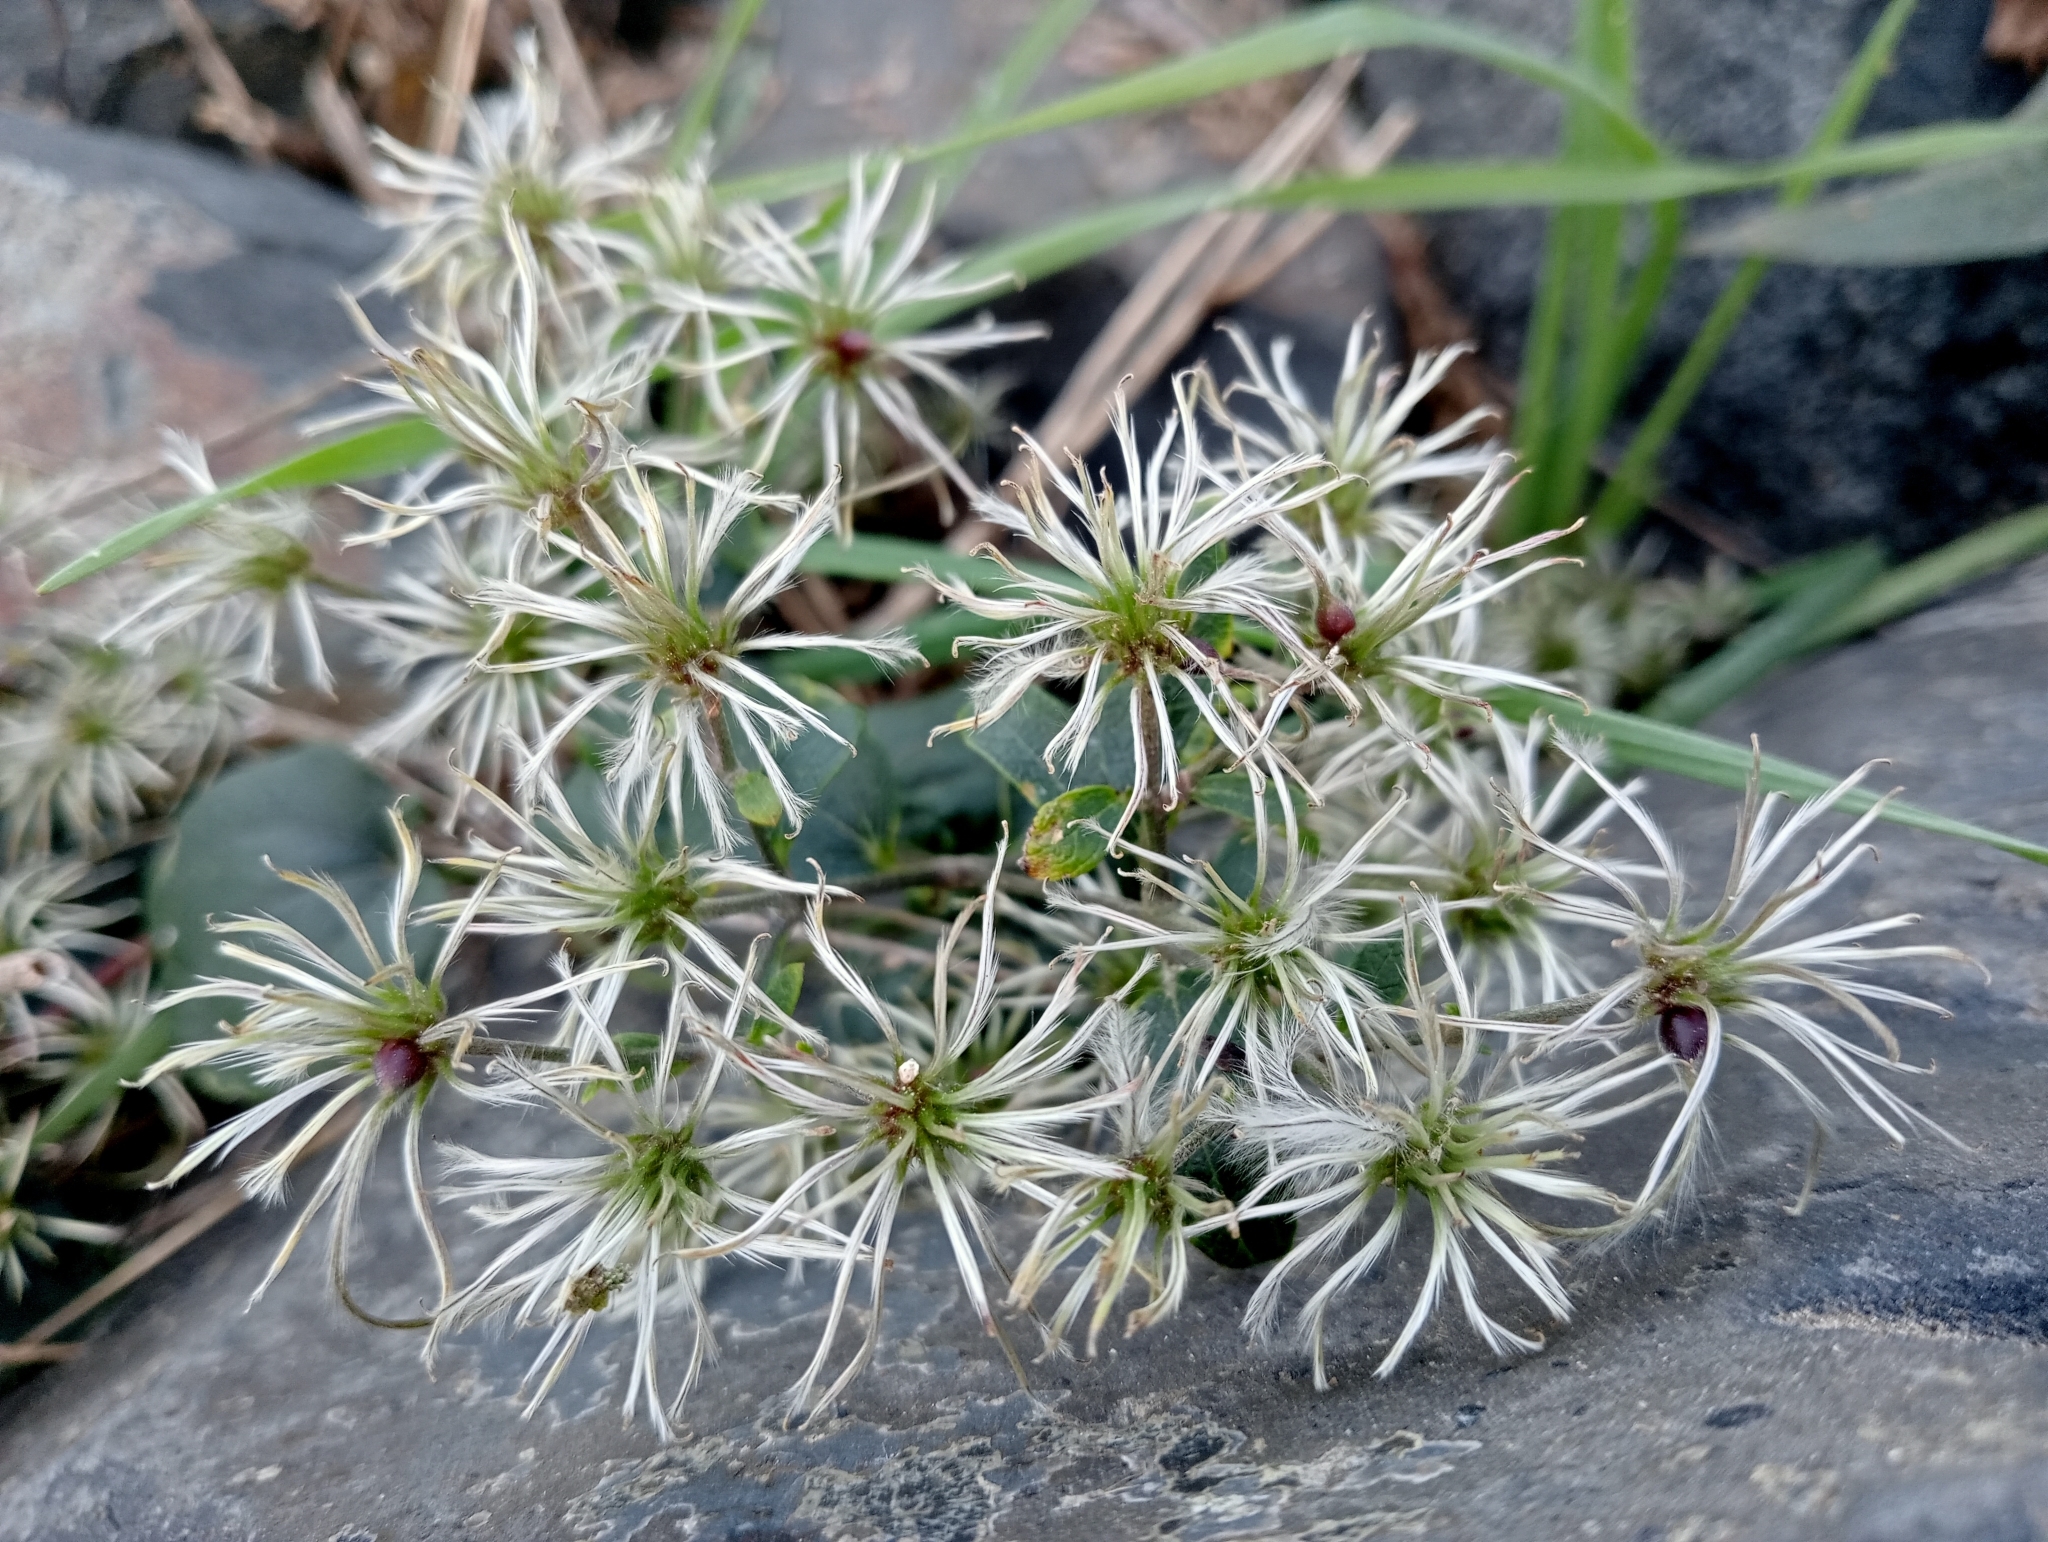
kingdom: Plantae
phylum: Tracheophyta
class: Magnoliopsida
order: Ranunculales
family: Ranunculaceae
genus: Clematis
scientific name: Clematis vitalba
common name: Evergreen clematis
